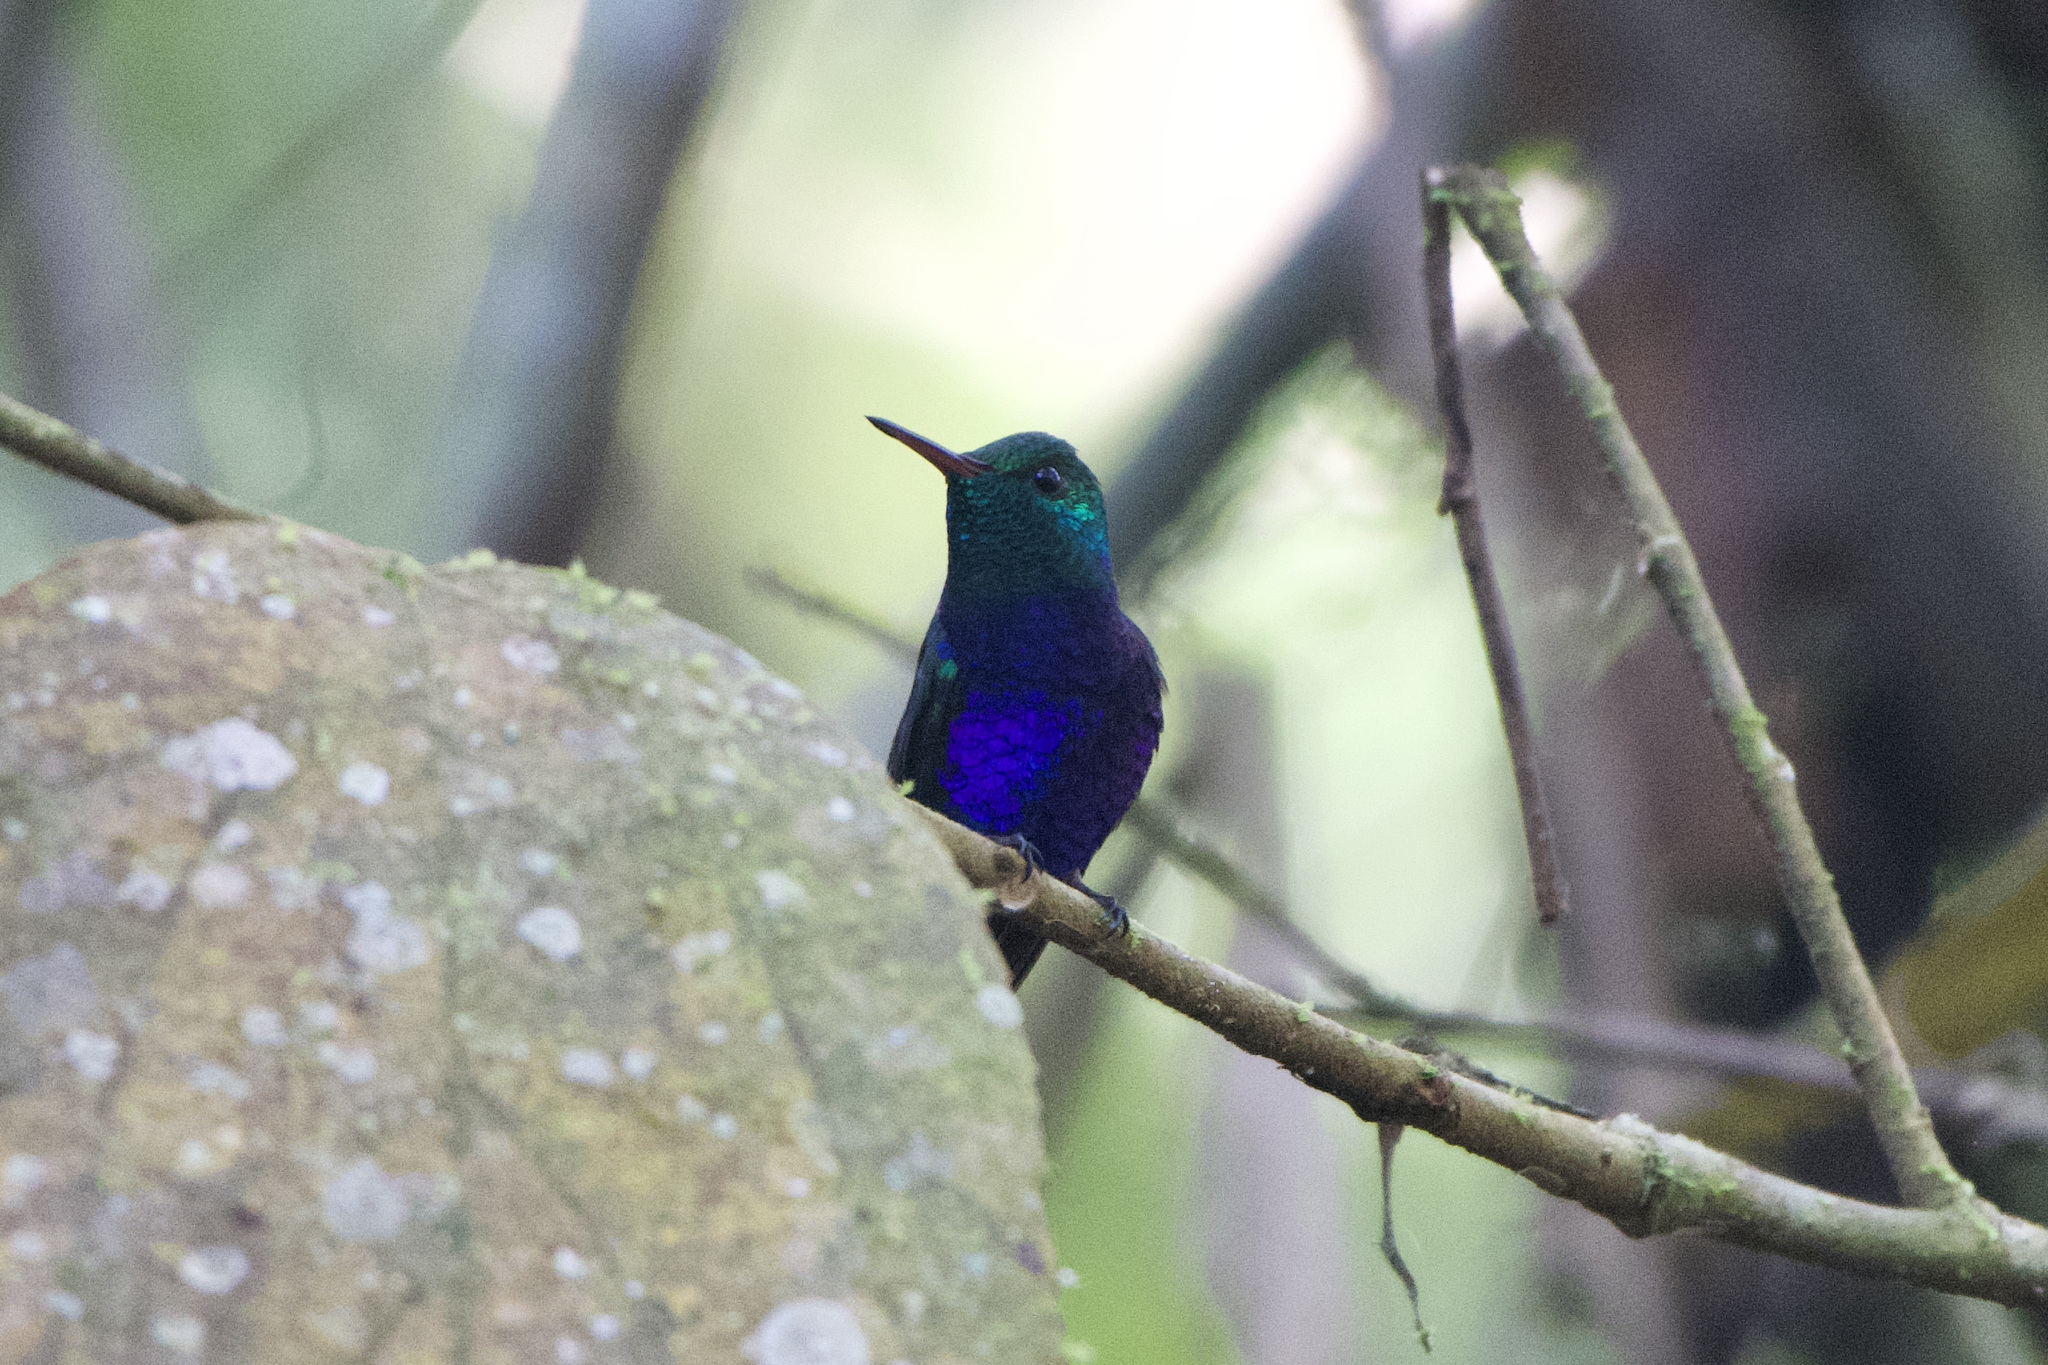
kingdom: Animalia
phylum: Chordata
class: Aves
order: Apodiformes
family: Trochilidae
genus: Chlorestes
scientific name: Chlorestes julie
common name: Violet-bellied hummingbird
